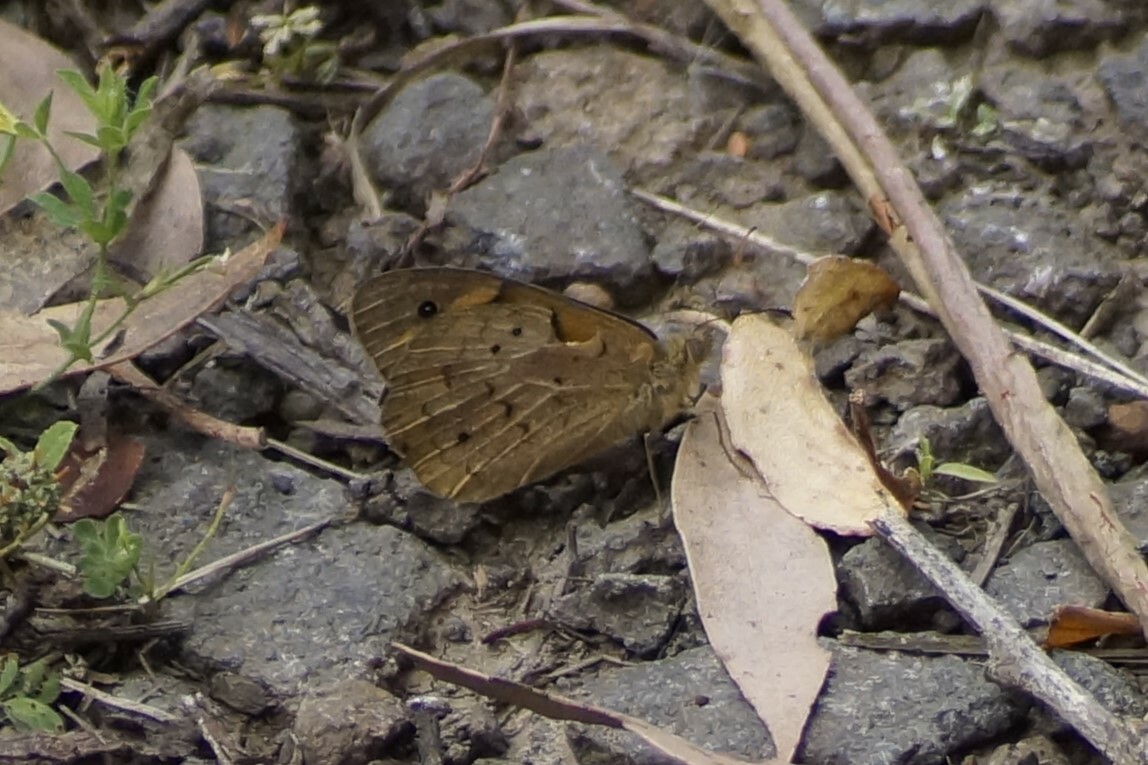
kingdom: Animalia
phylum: Arthropoda
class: Insecta
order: Lepidoptera
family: Nymphalidae
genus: Heteronympha
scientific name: Heteronympha merope
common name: Common brown
